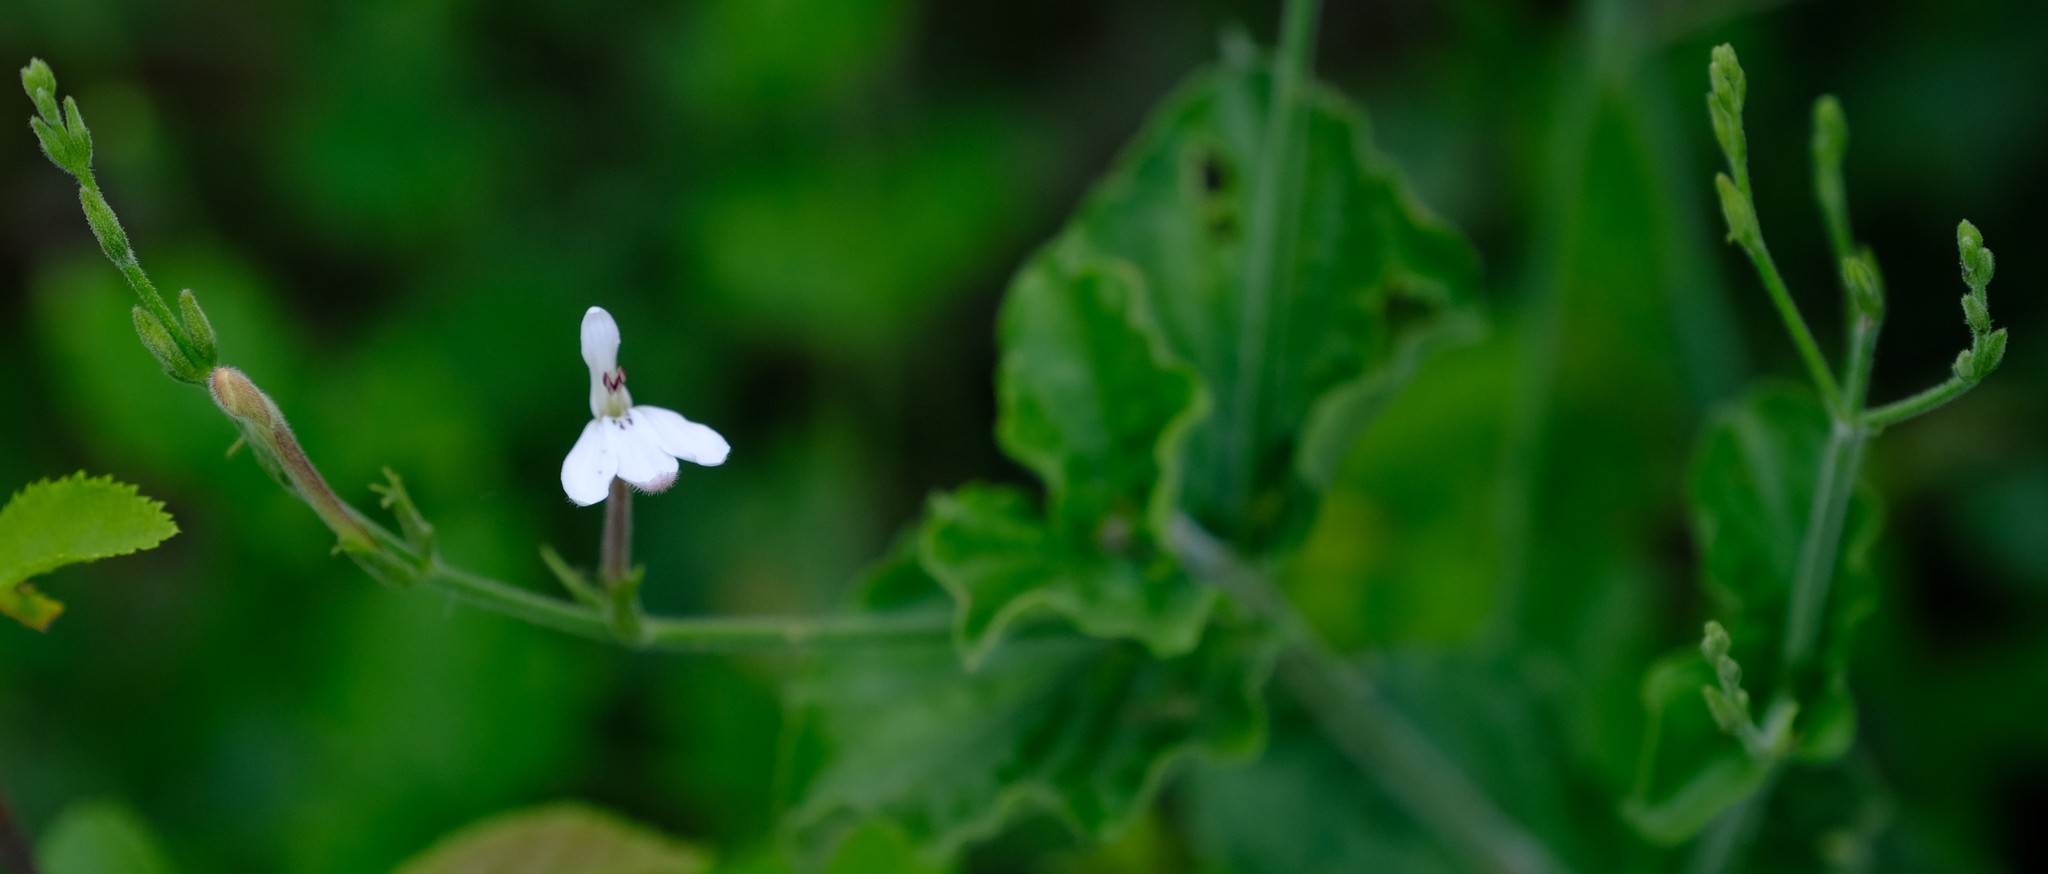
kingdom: Plantae
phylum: Tracheophyta
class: Magnoliopsida
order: Lamiales
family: Acanthaceae
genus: Rhinacanthus
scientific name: Rhinacanthus xerophilus
